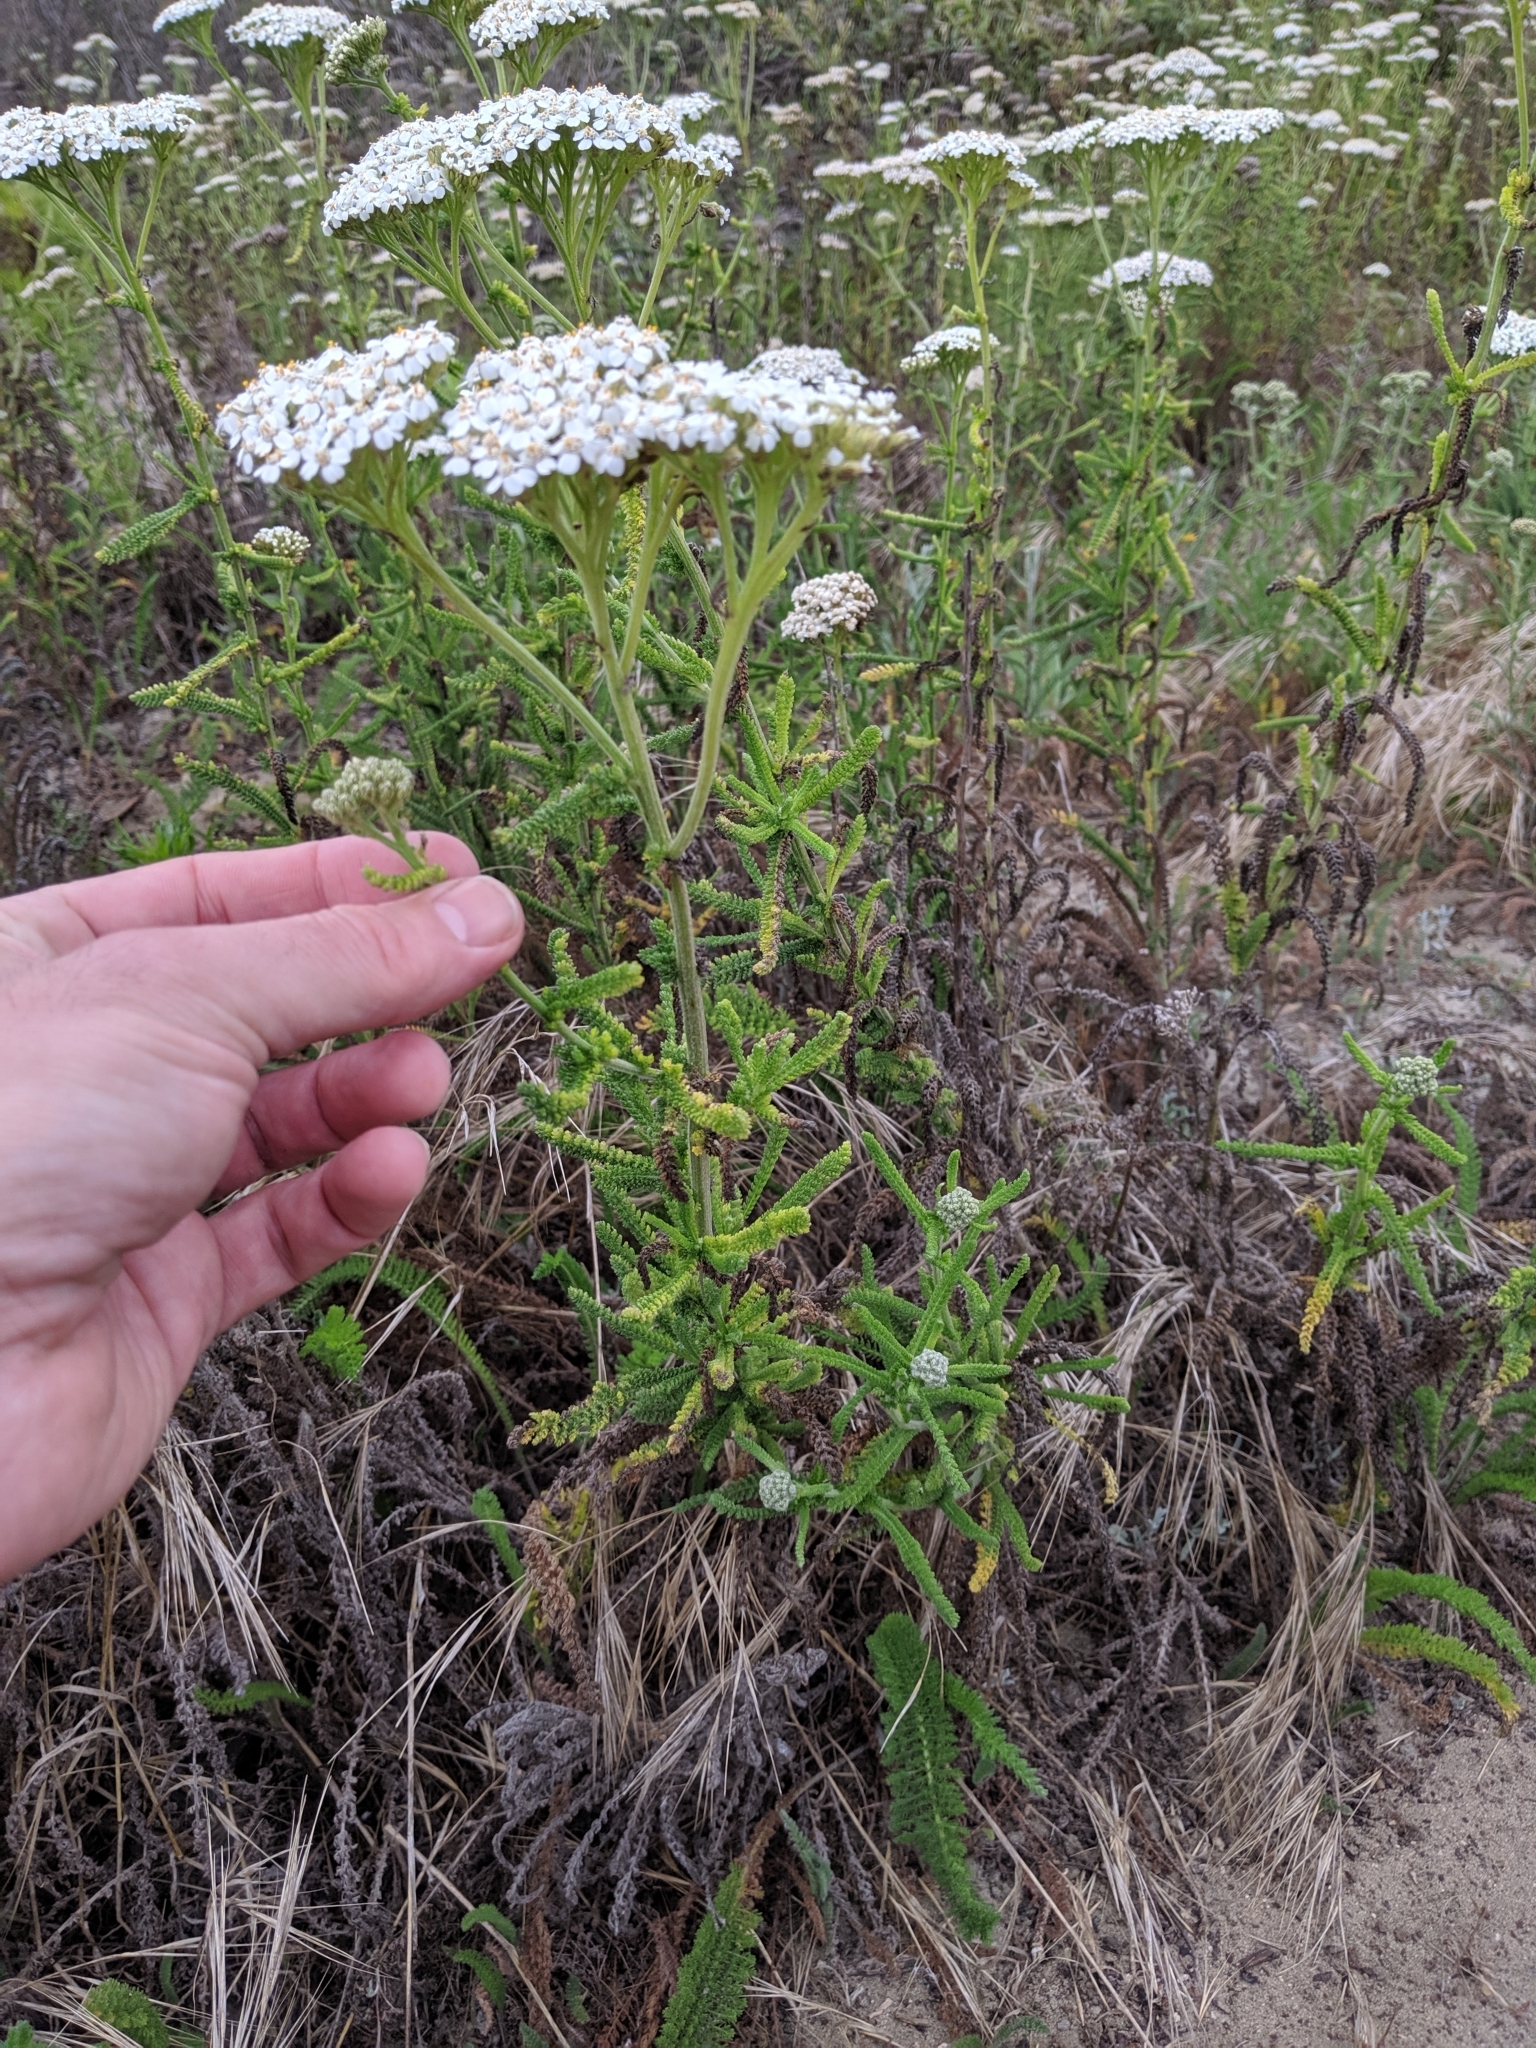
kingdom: Plantae
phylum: Tracheophyta
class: Magnoliopsida
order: Asterales
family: Asteraceae
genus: Achillea
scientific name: Achillea millefolium
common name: Yarrow
